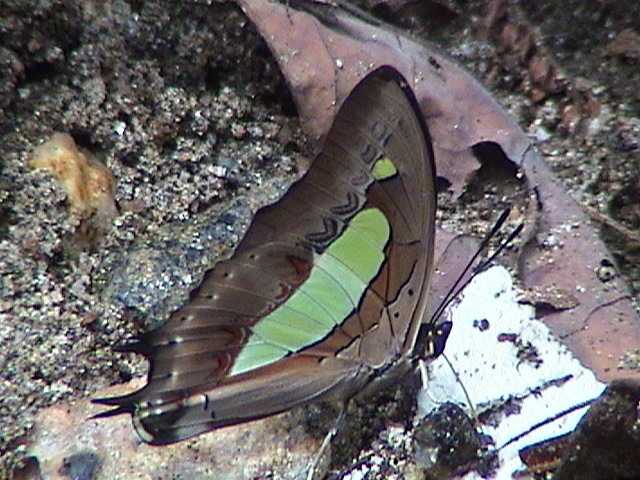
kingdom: Animalia
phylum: Arthropoda
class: Insecta
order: Lepidoptera
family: Nymphalidae
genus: Polyura
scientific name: Polyura
